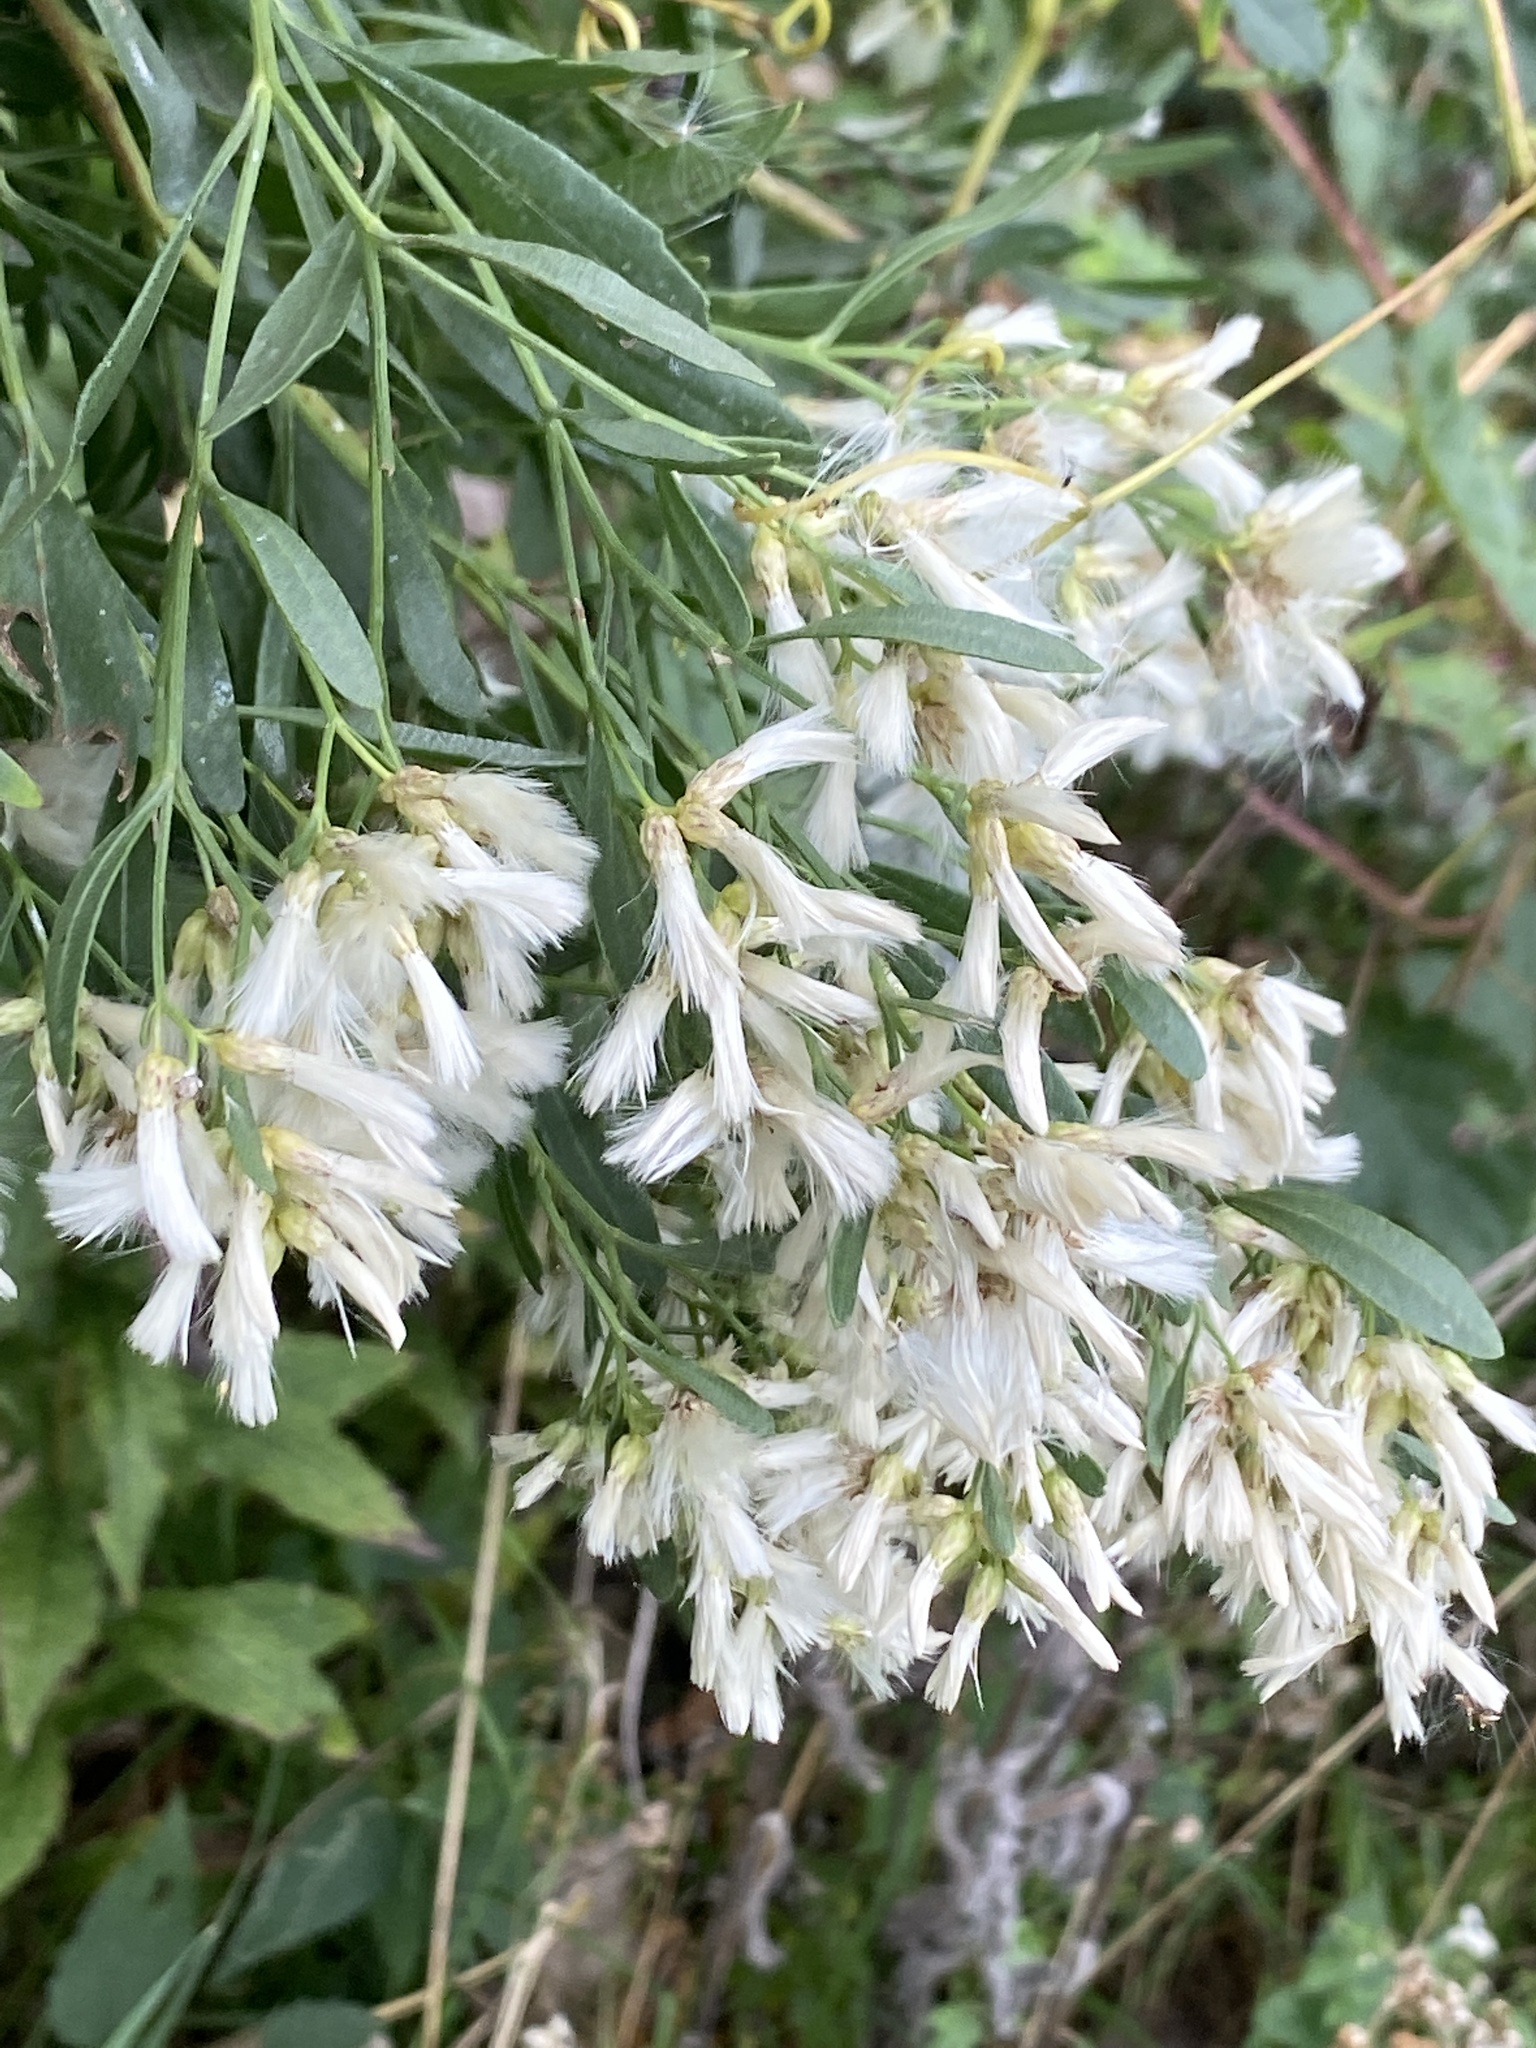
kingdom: Plantae
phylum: Tracheophyta
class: Magnoliopsida
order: Asterales
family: Asteraceae
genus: Baccharis
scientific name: Baccharis halimifolia
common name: Eastern baccharis
